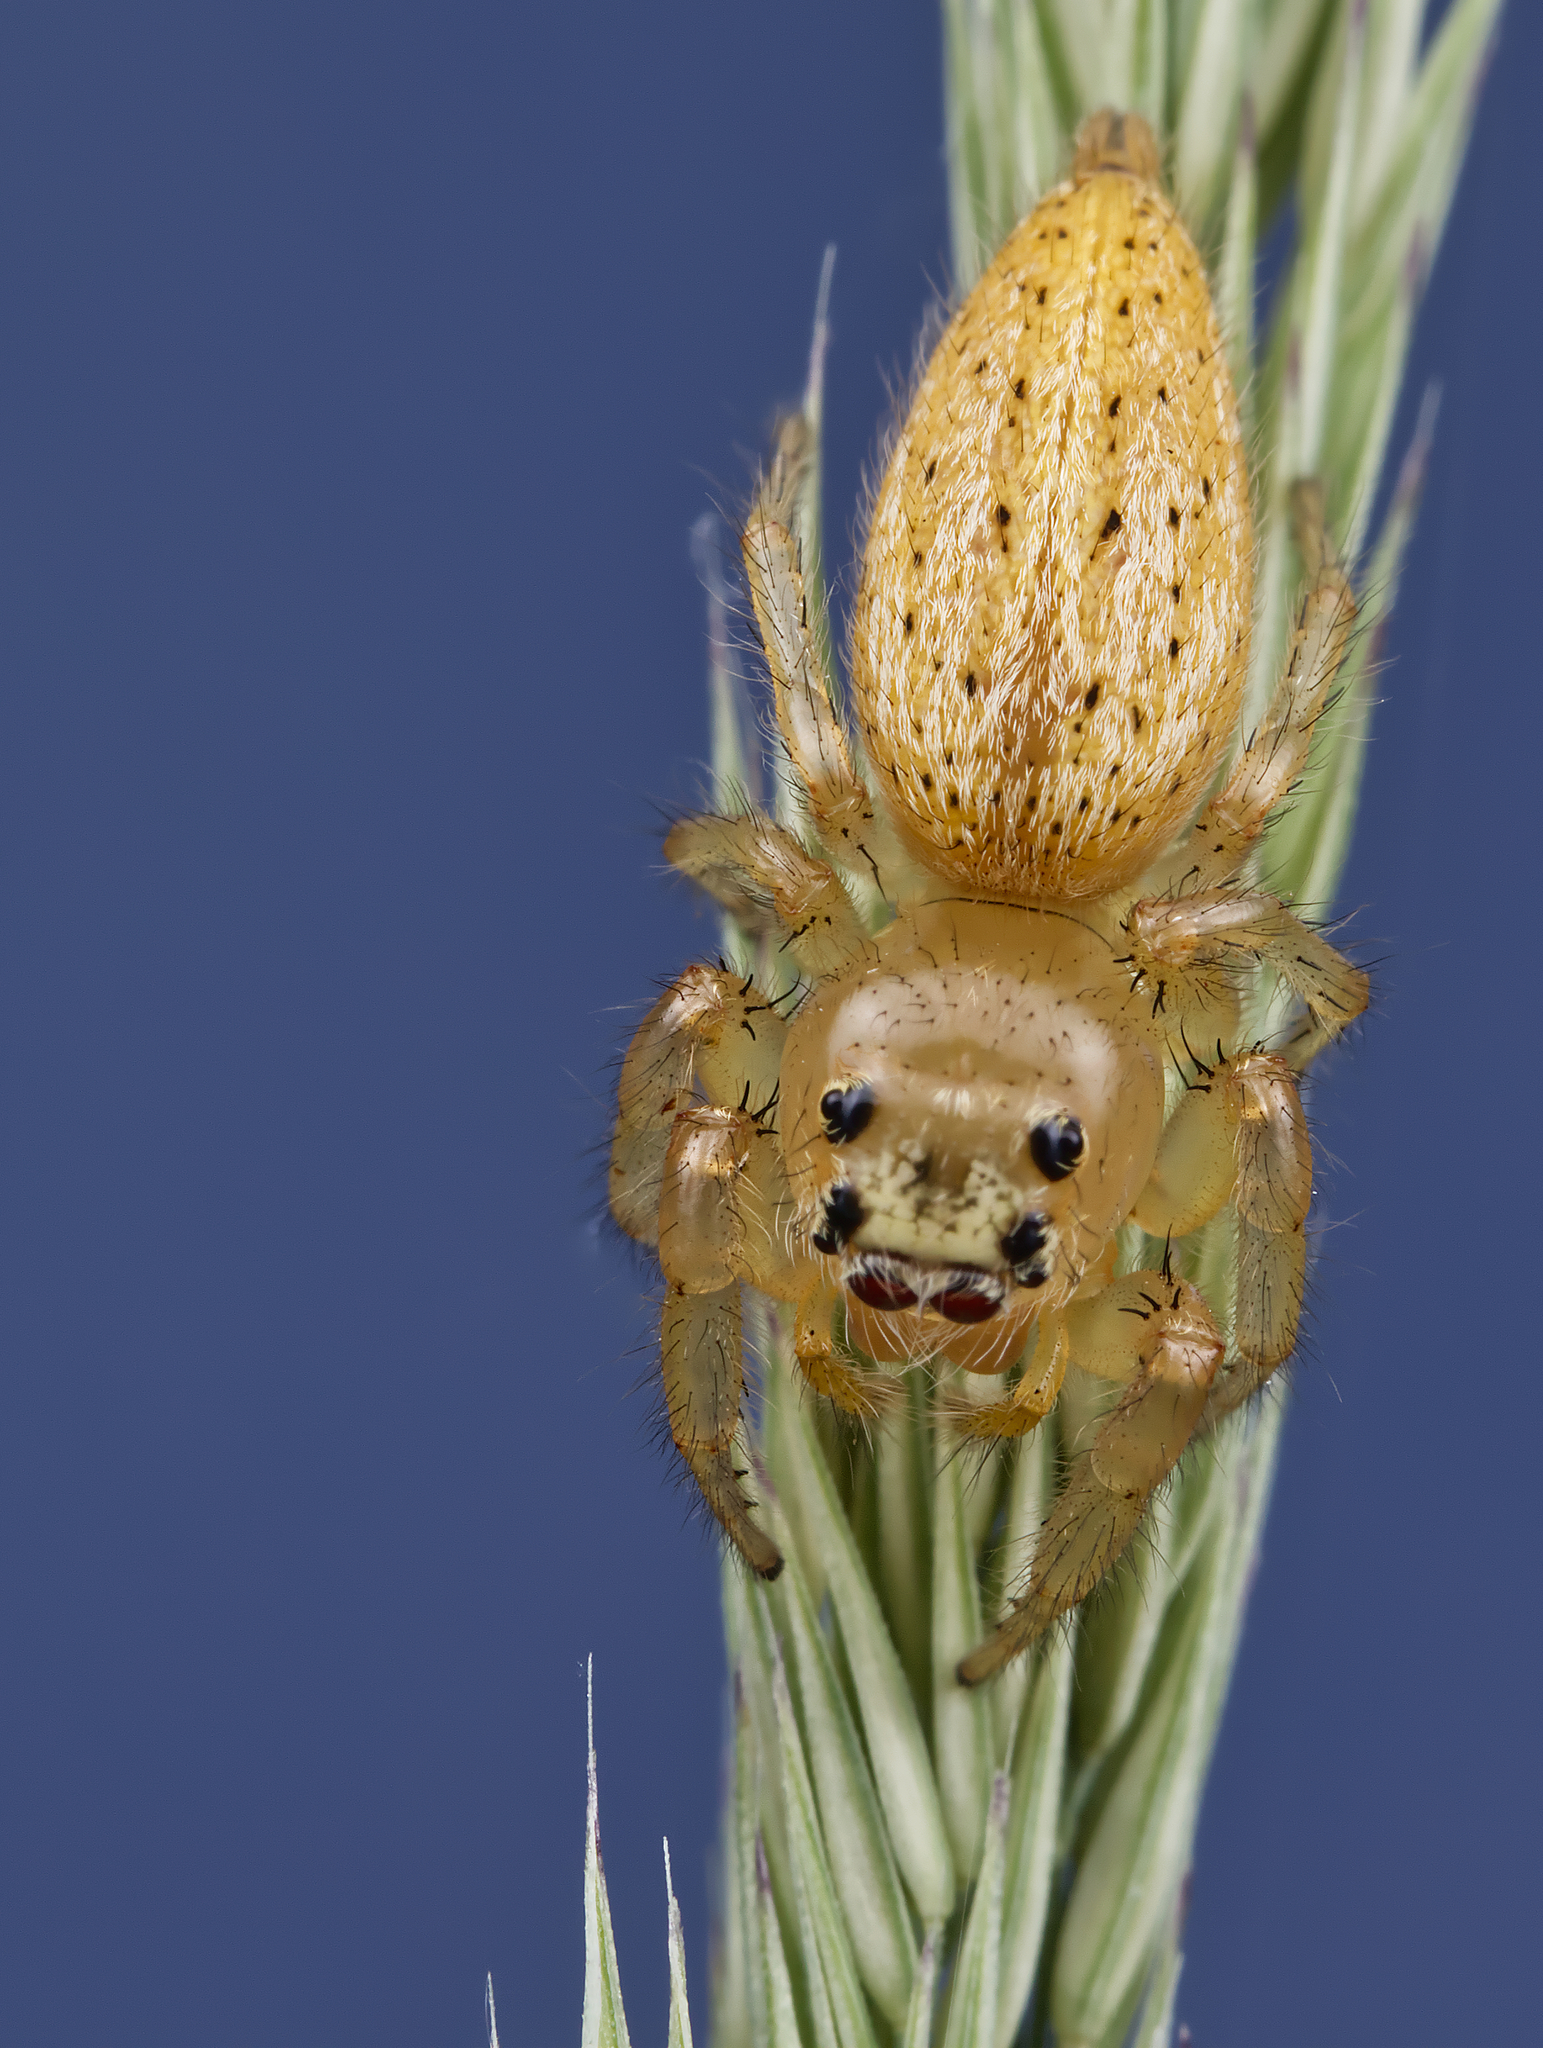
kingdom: Animalia
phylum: Arthropoda
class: Arachnida
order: Araneae
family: Salticidae
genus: Colonus
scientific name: Colonus puerperus
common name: Jumping spiders
